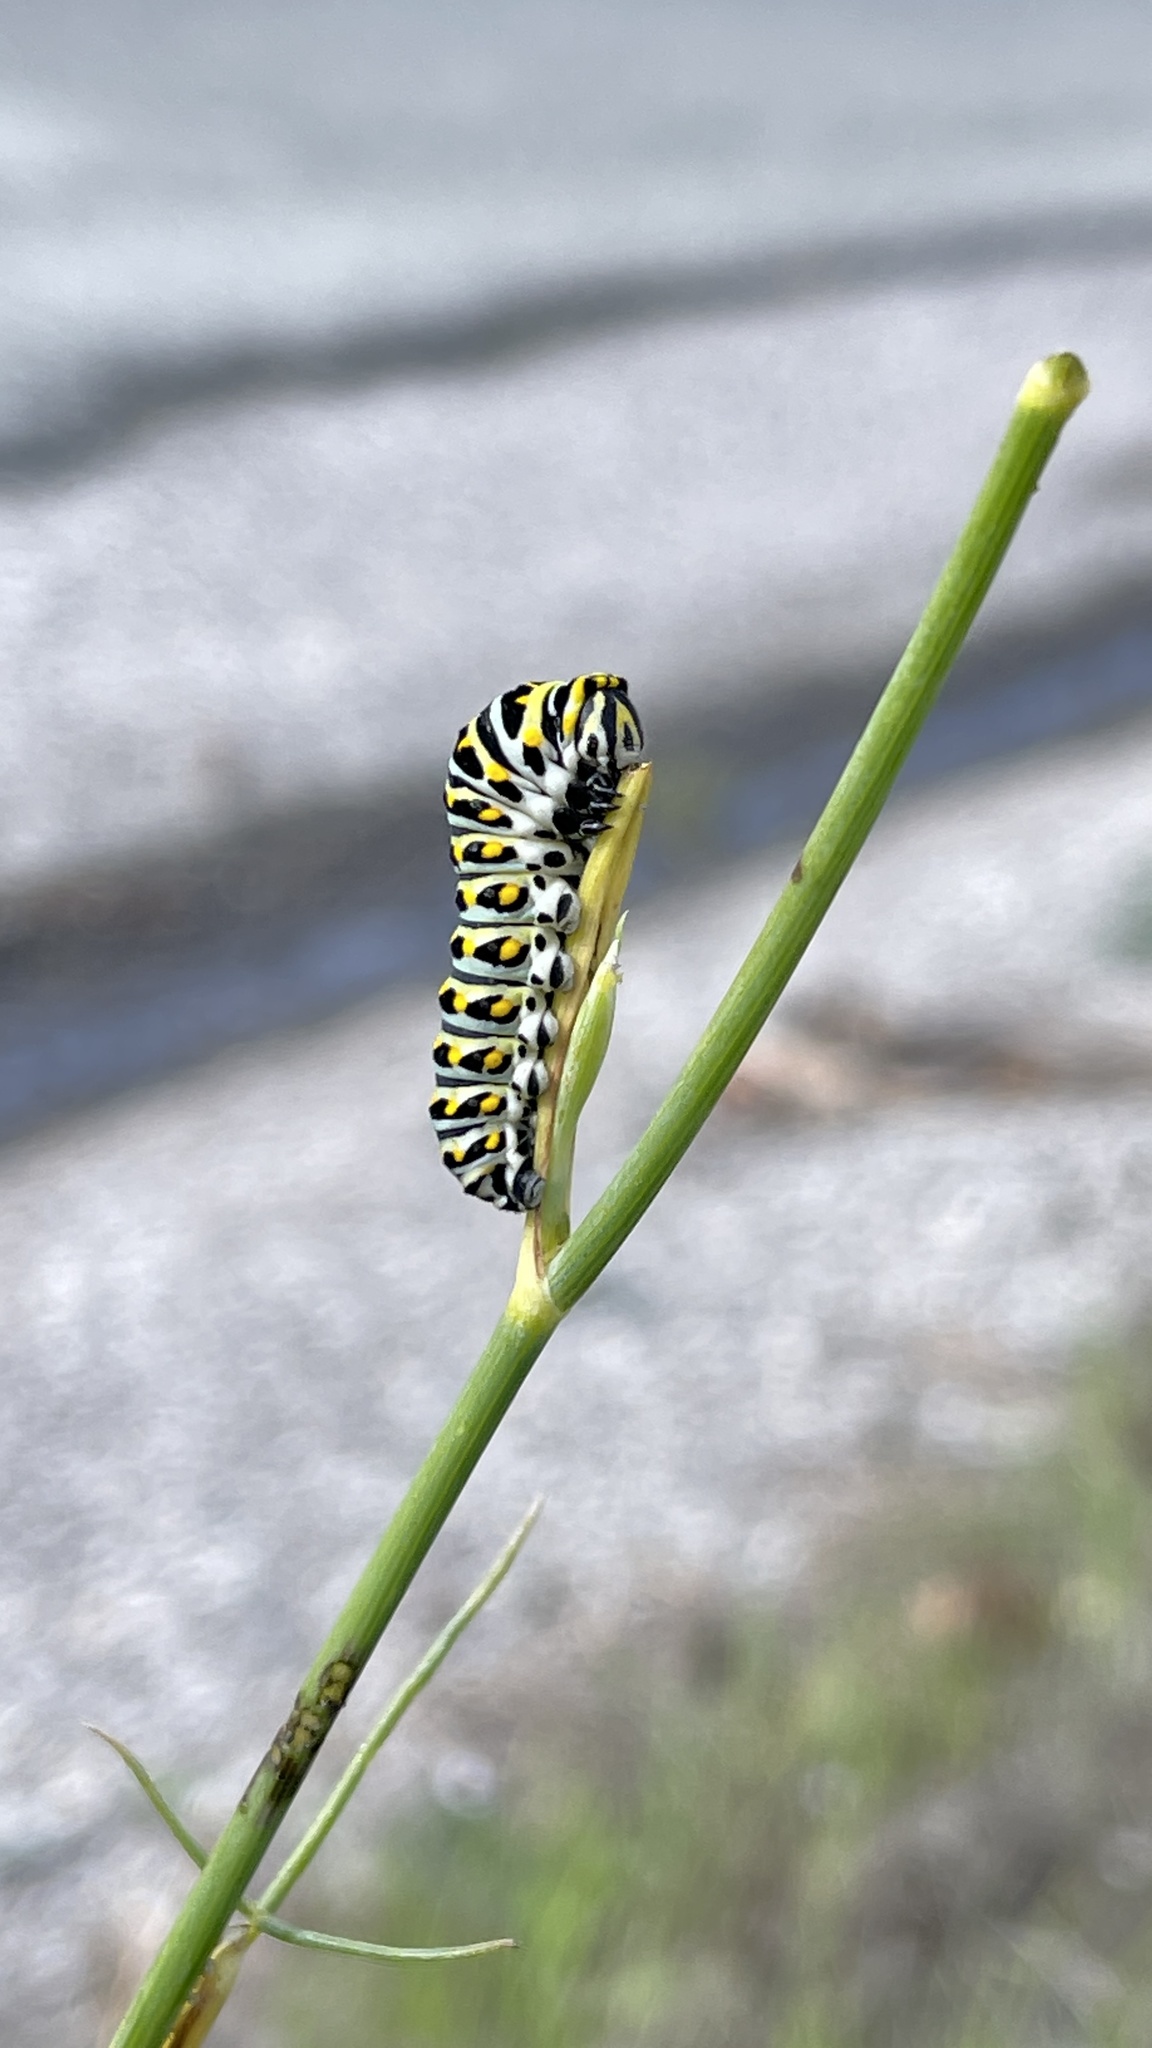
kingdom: Animalia
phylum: Arthropoda
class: Insecta
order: Lepidoptera
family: Papilionidae
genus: Papilio
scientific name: Papilio zelicaon
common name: Anise swallowtail
